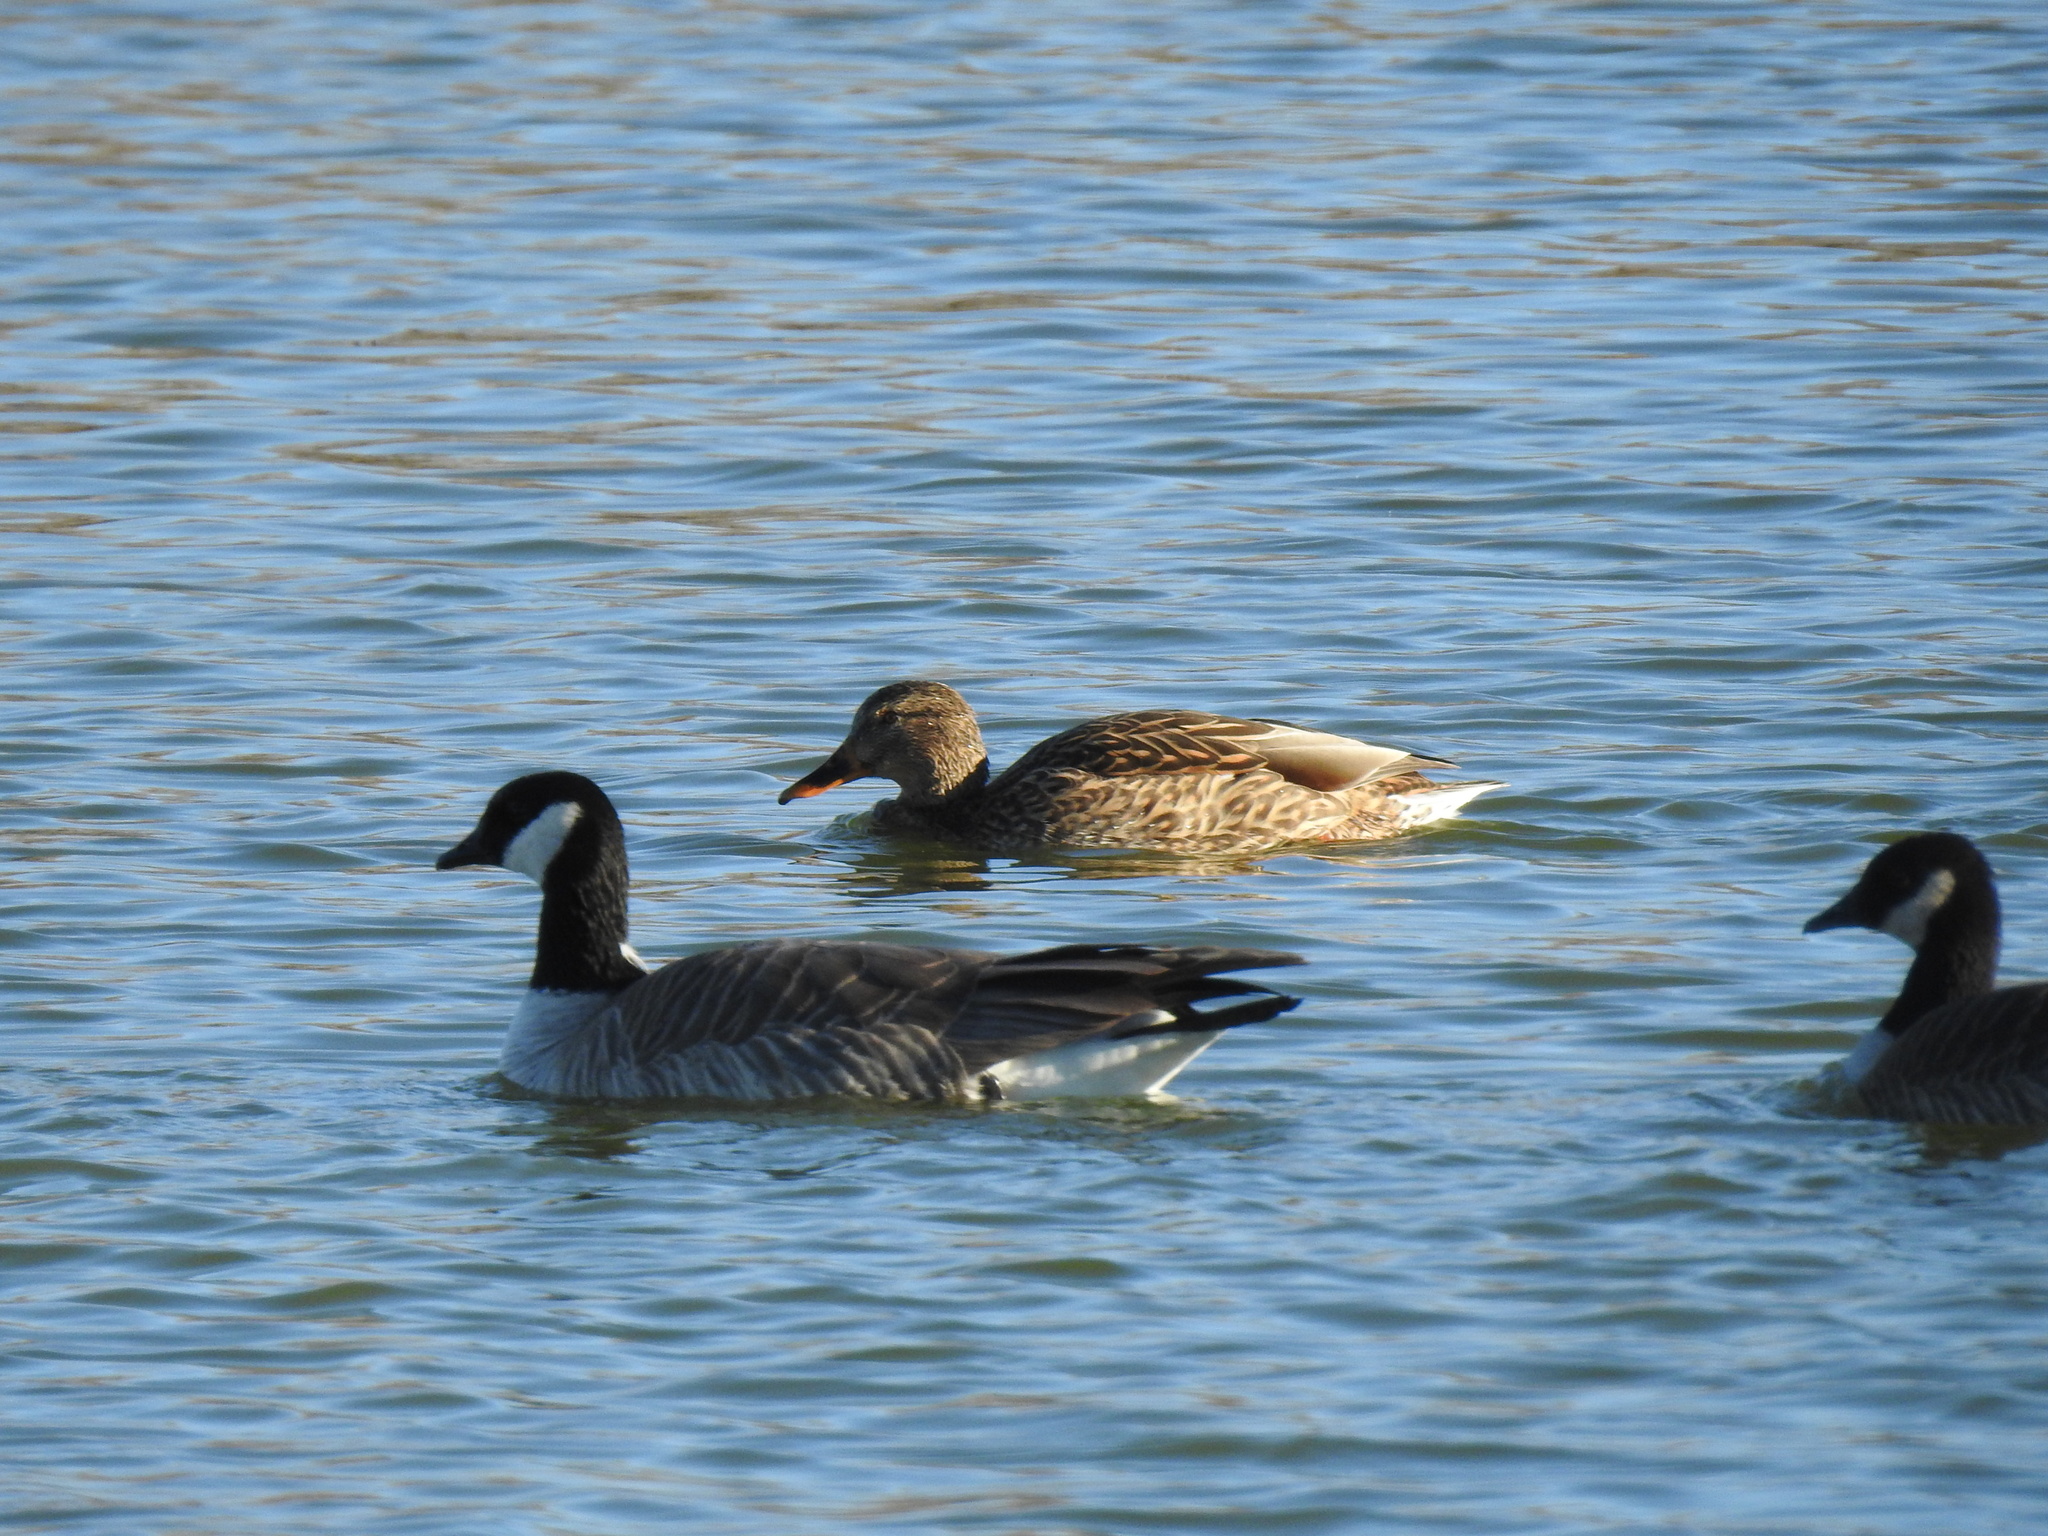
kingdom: Animalia
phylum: Chordata
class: Aves
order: Anseriformes
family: Anatidae
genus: Anas
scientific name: Anas platyrhynchos
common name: Mallard
